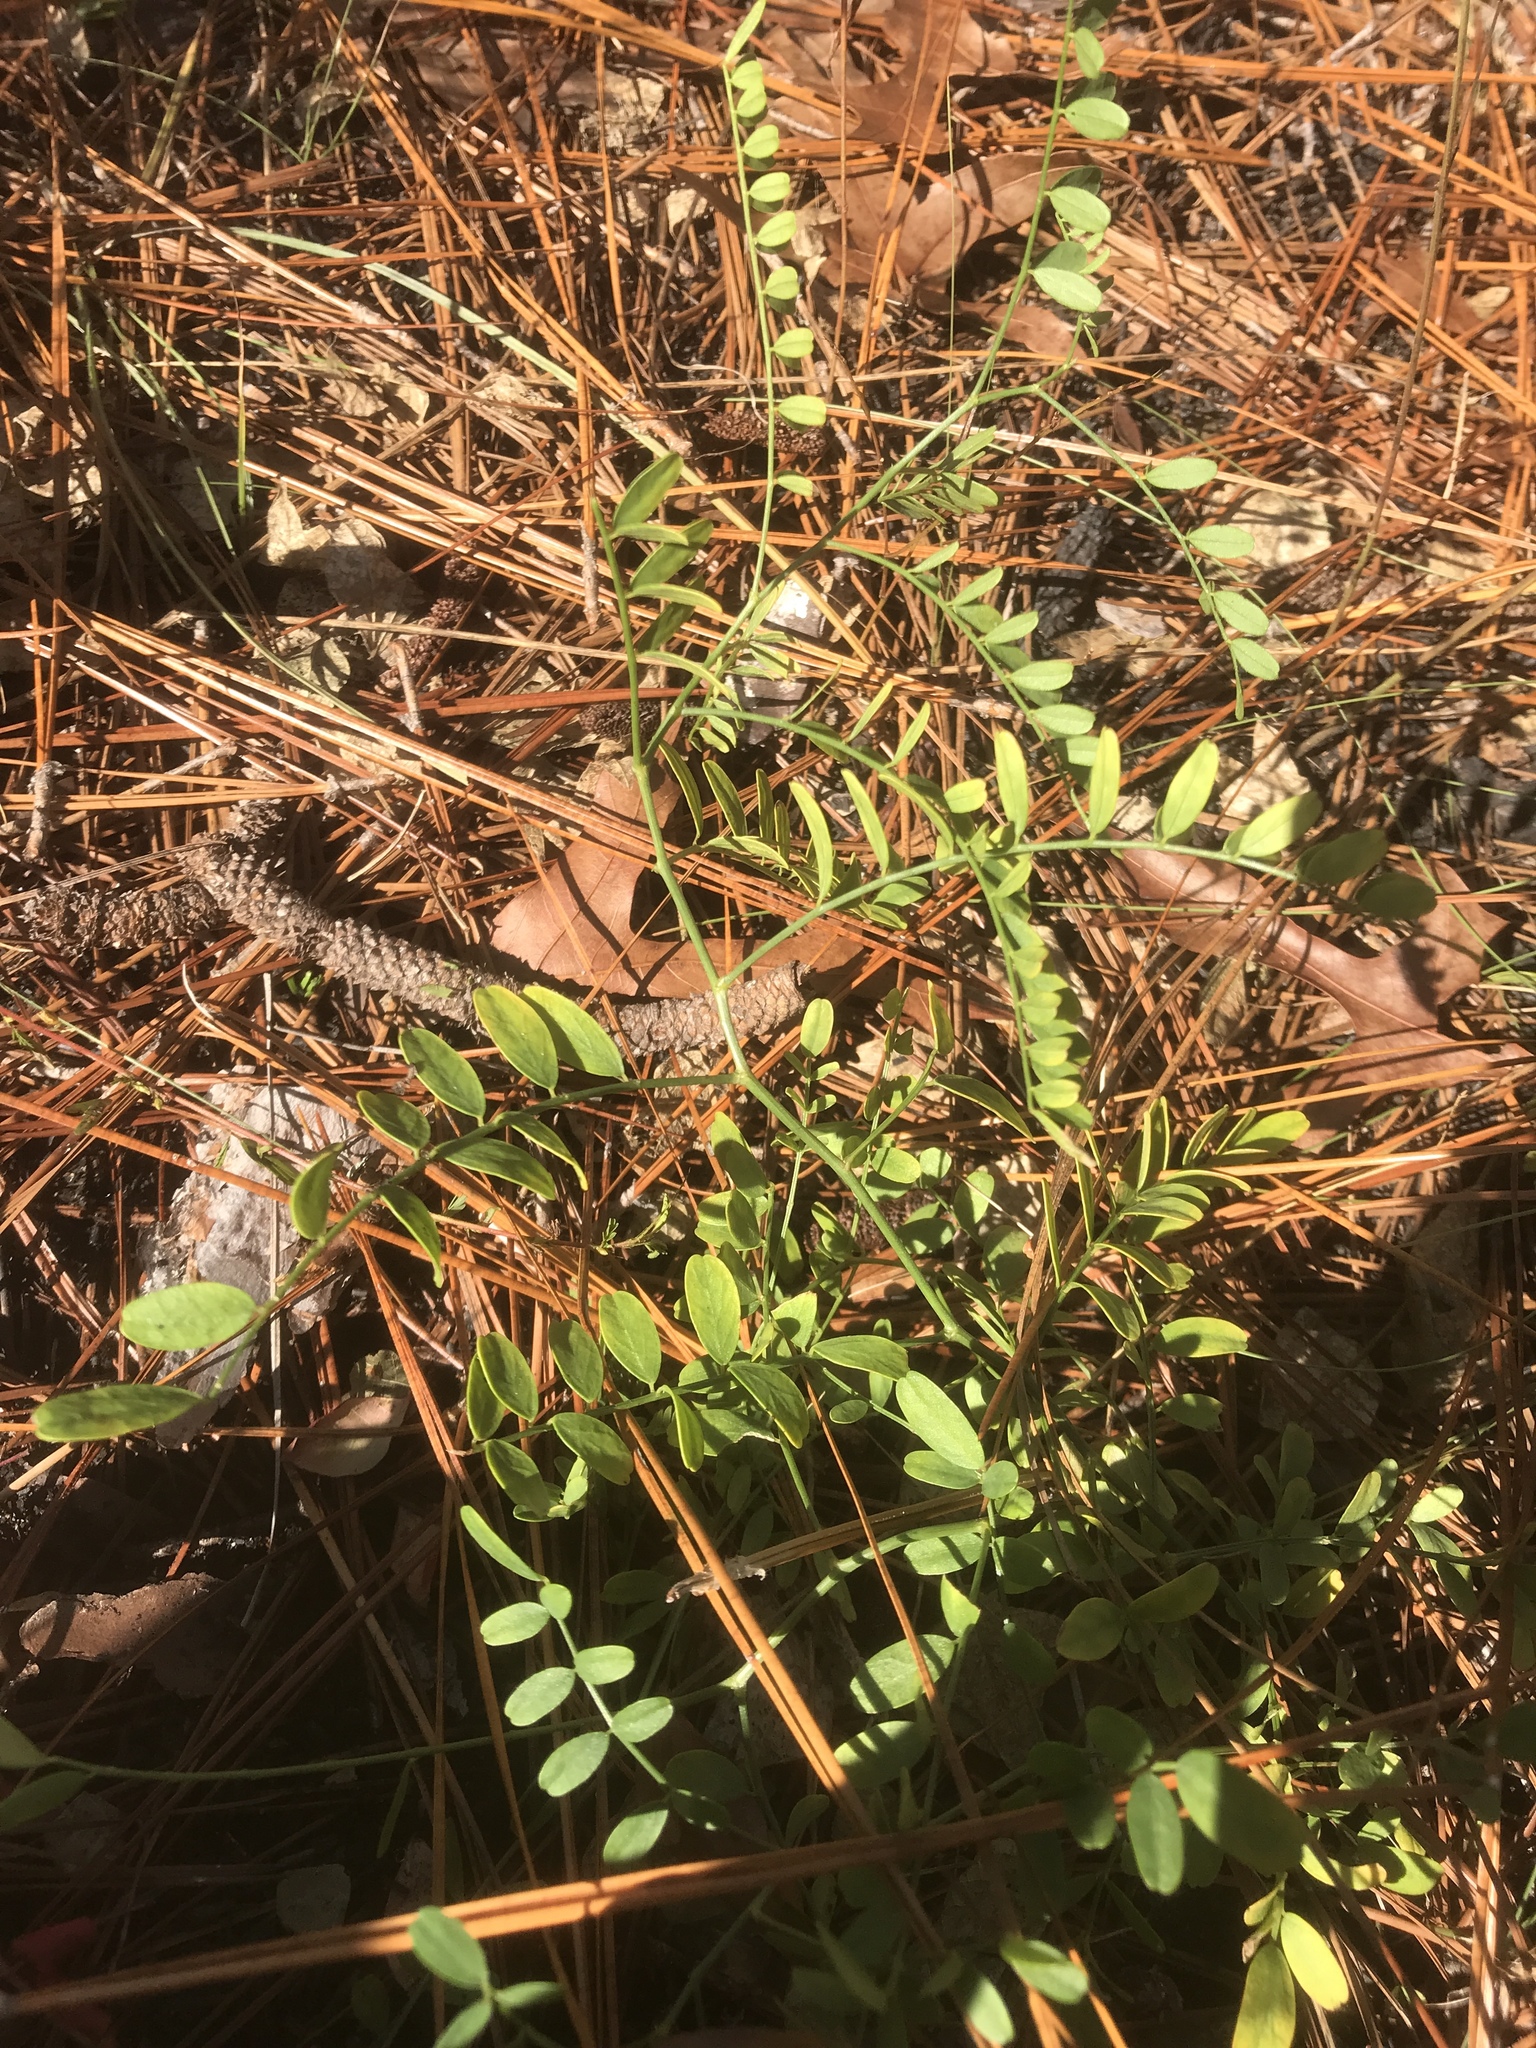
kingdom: Plantae
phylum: Tracheophyta
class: Magnoliopsida
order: Fabales
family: Fabaceae
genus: Astragalus
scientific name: Astragalus michauxii
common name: Michaux milk-vetch
